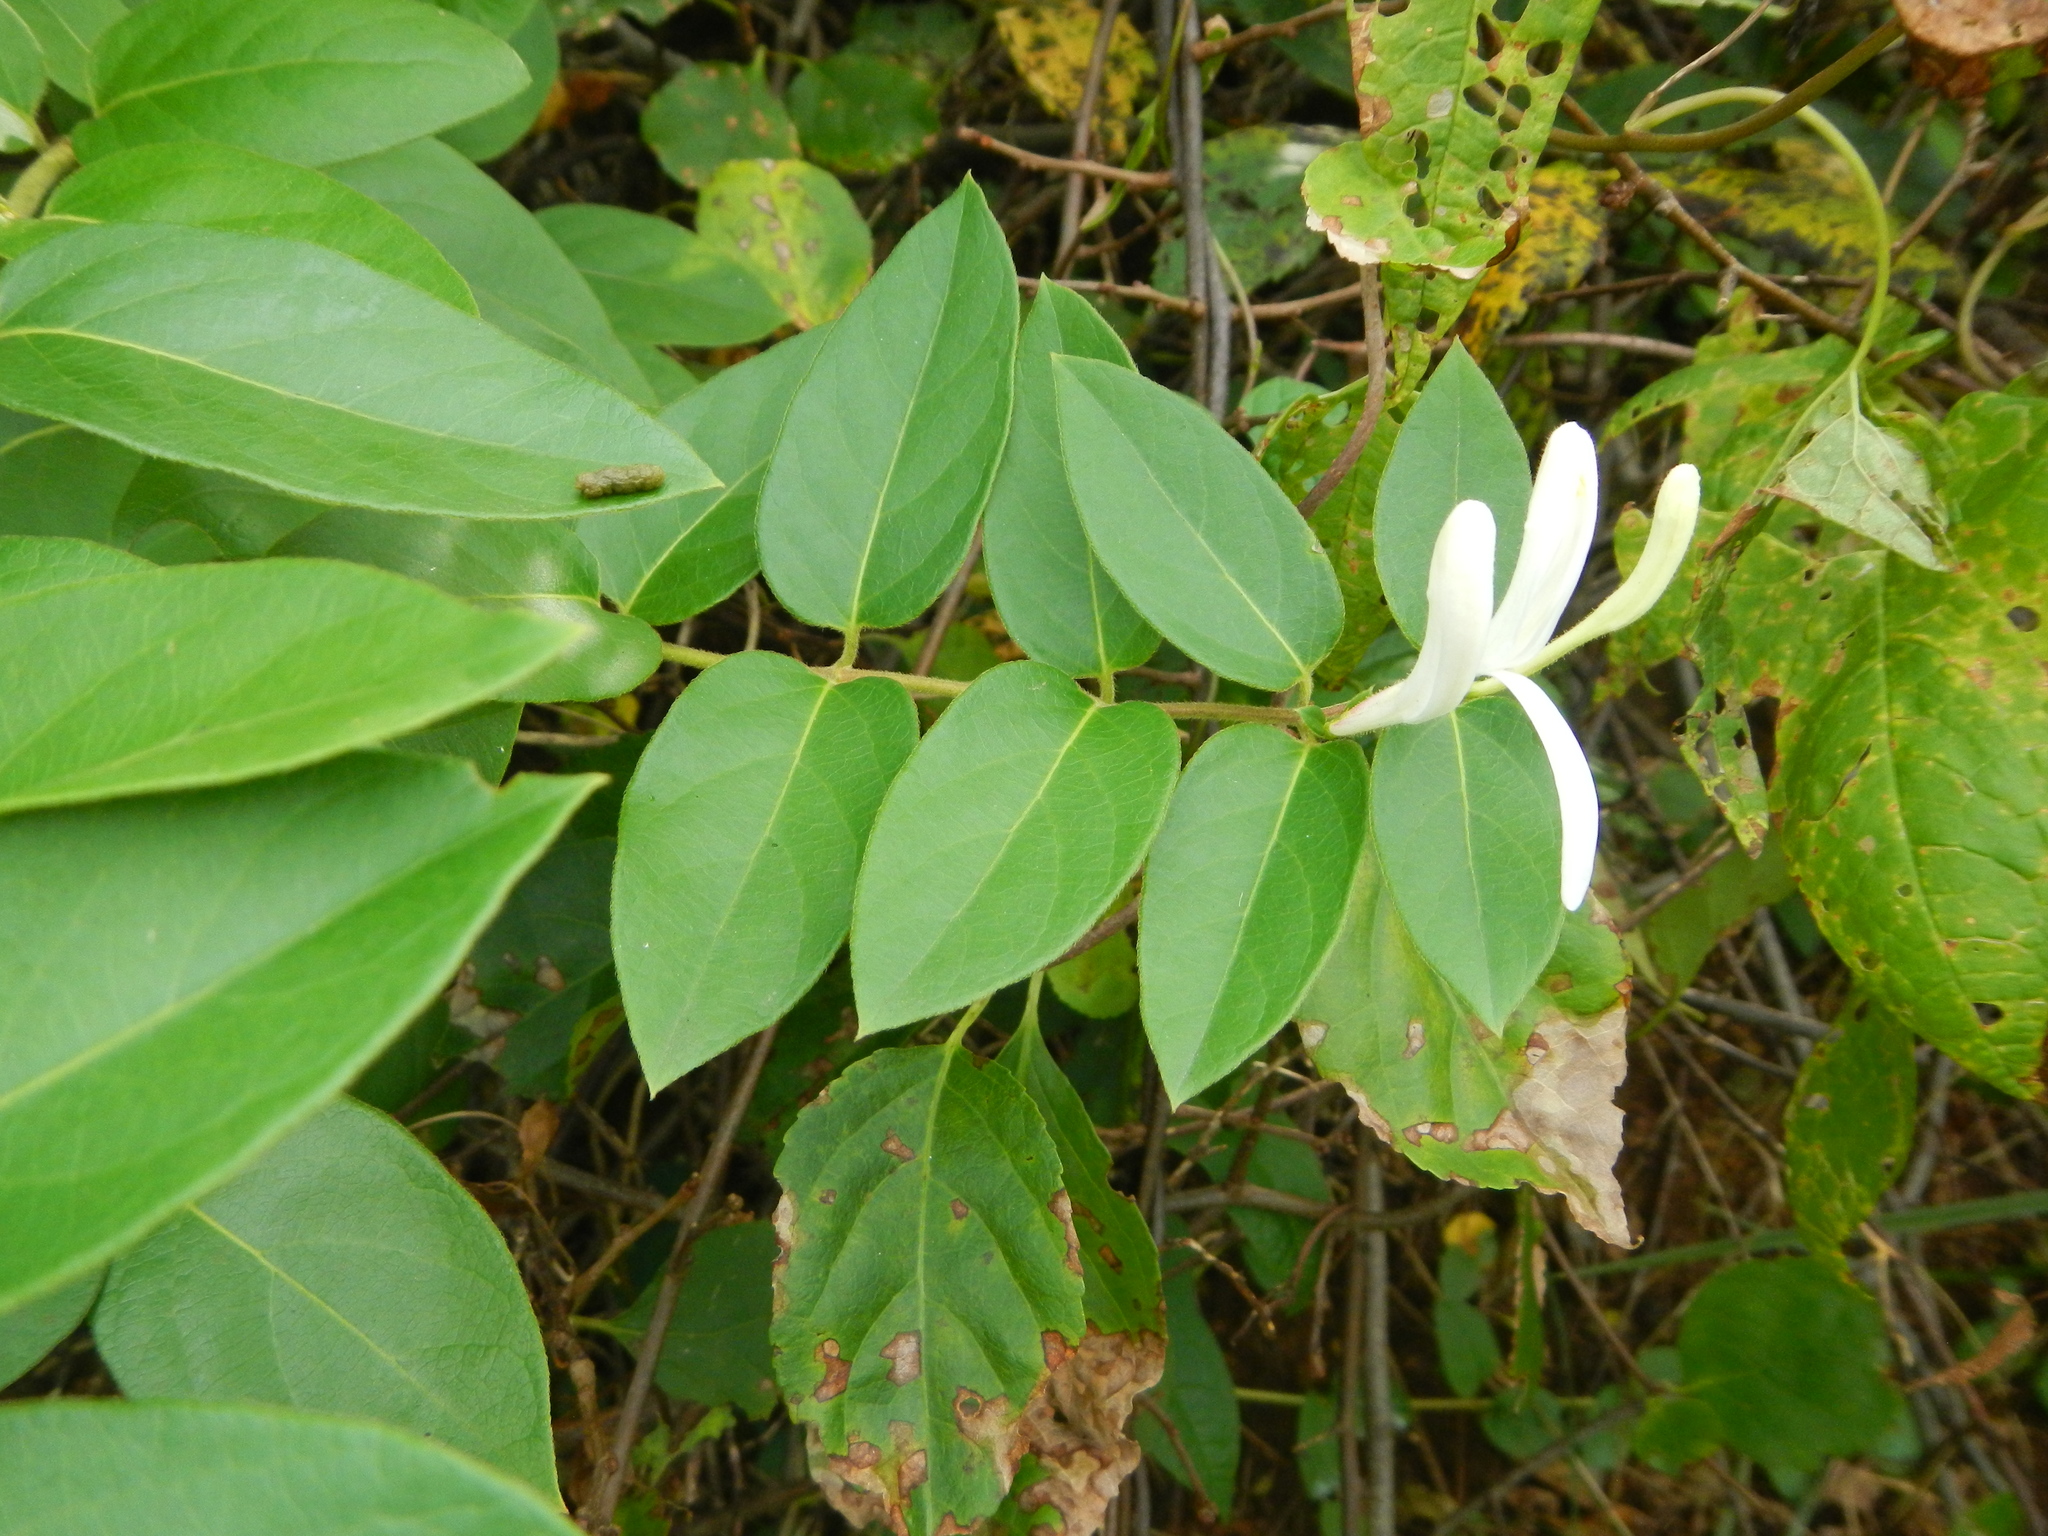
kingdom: Plantae
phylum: Tracheophyta
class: Magnoliopsida
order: Dipsacales
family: Caprifoliaceae
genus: Lonicera
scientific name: Lonicera japonica
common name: Japanese honeysuckle
